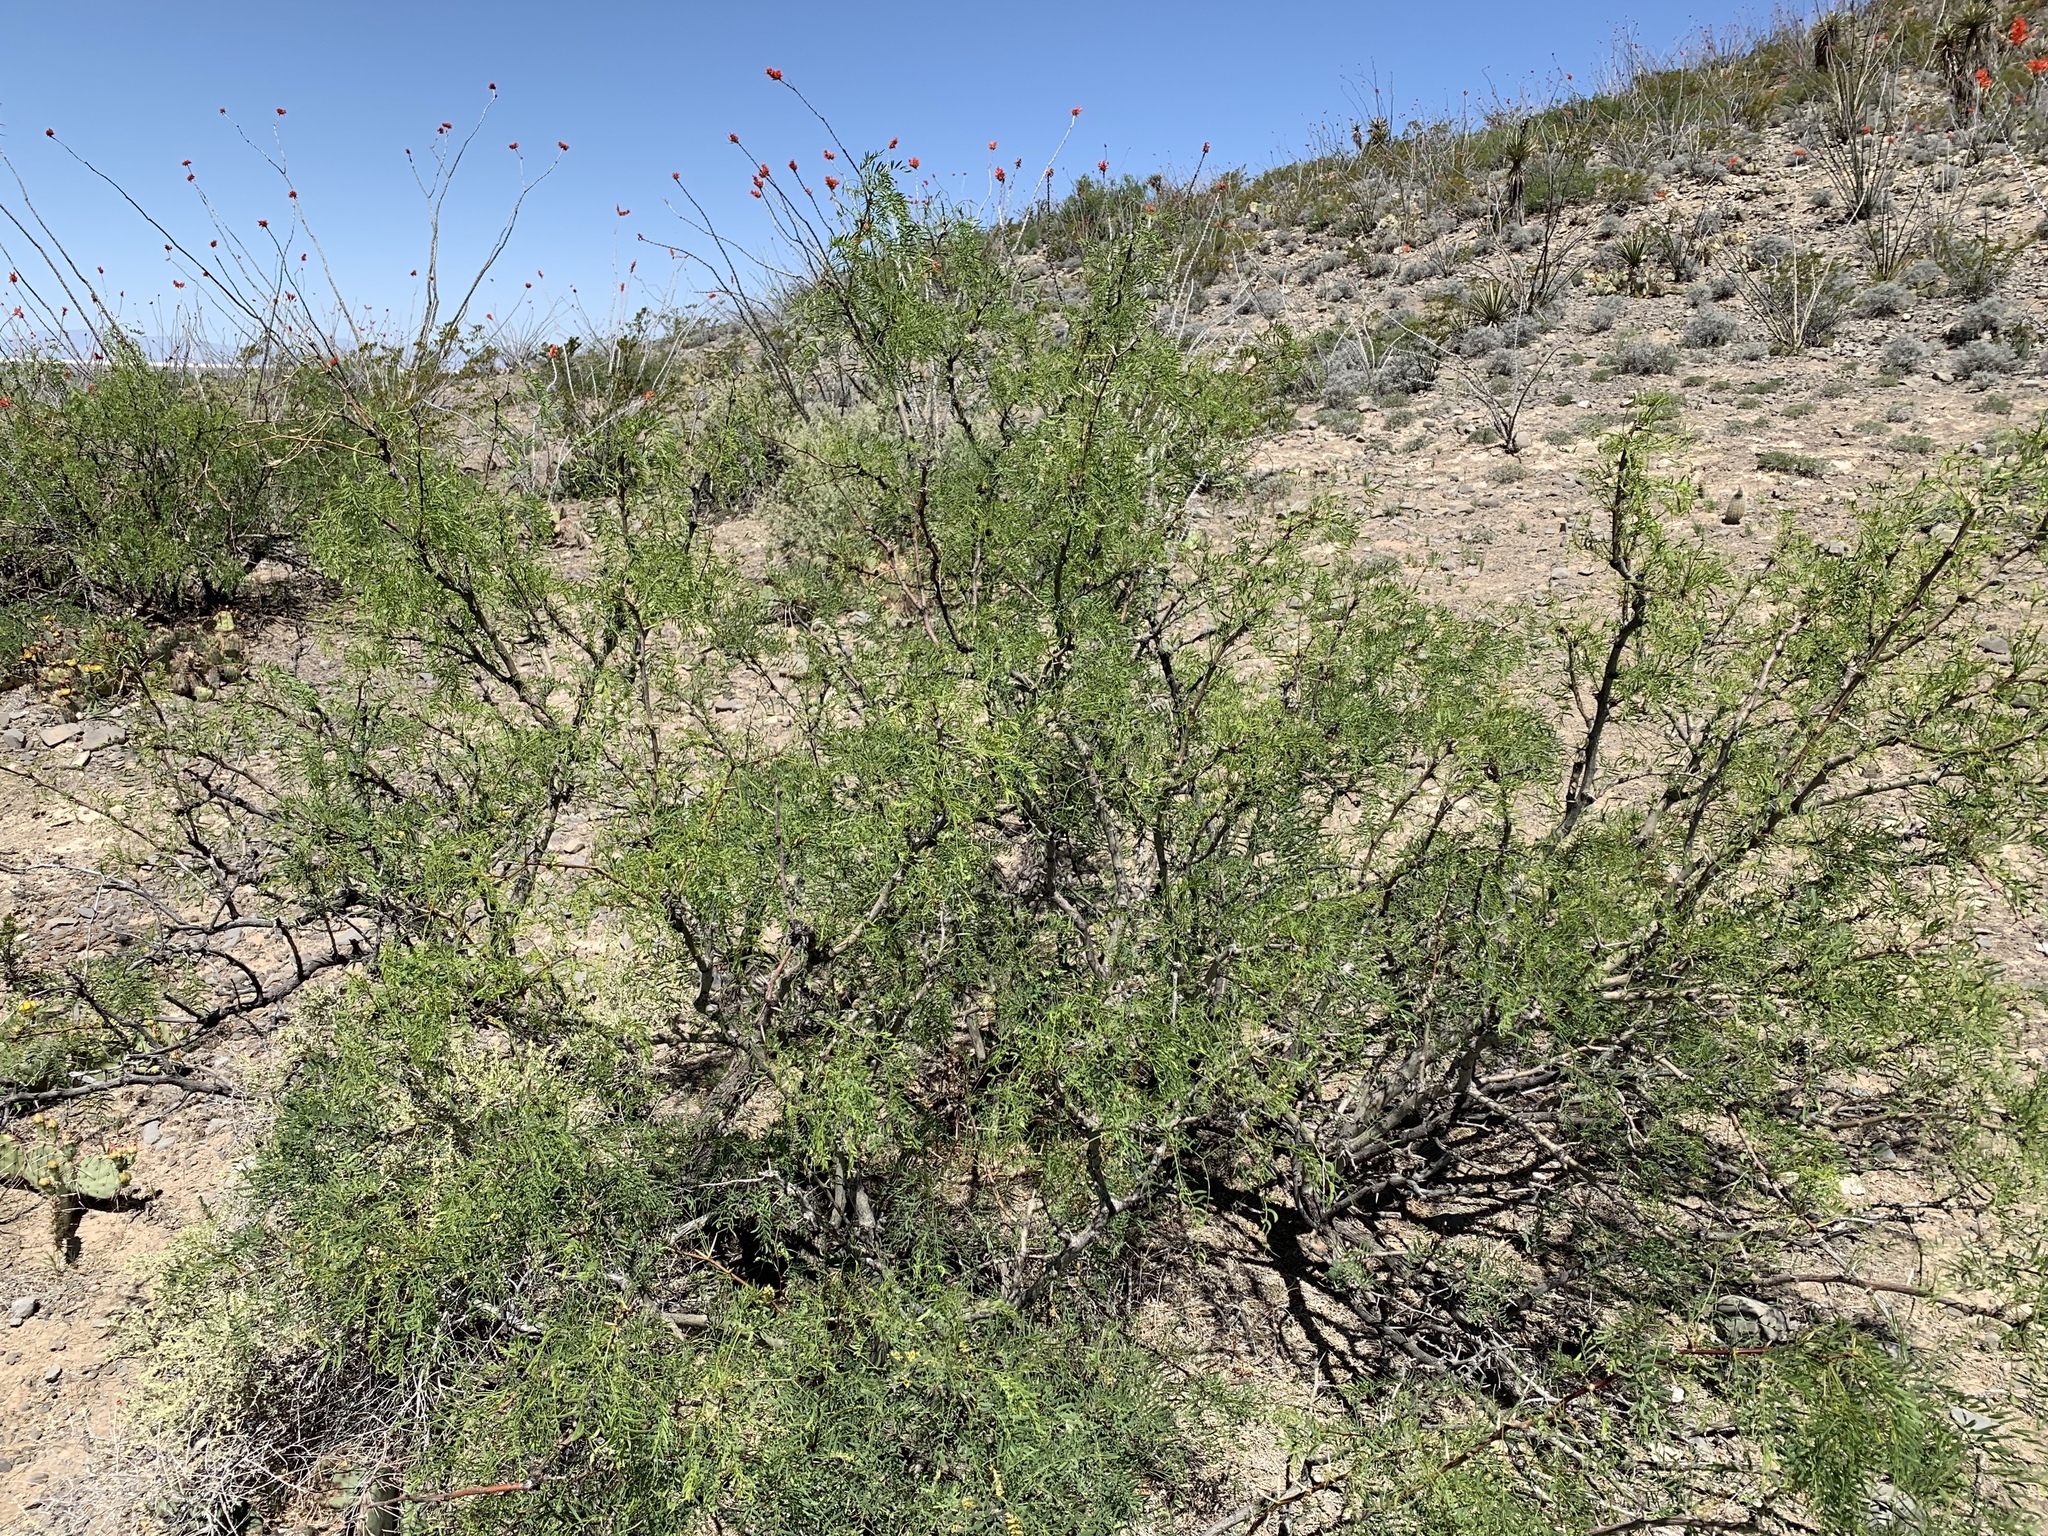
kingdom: Plantae
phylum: Tracheophyta
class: Magnoliopsida
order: Fabales
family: Fabaceae
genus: Prosopis
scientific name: Prosopis glandulosa
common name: Honey mesquite
